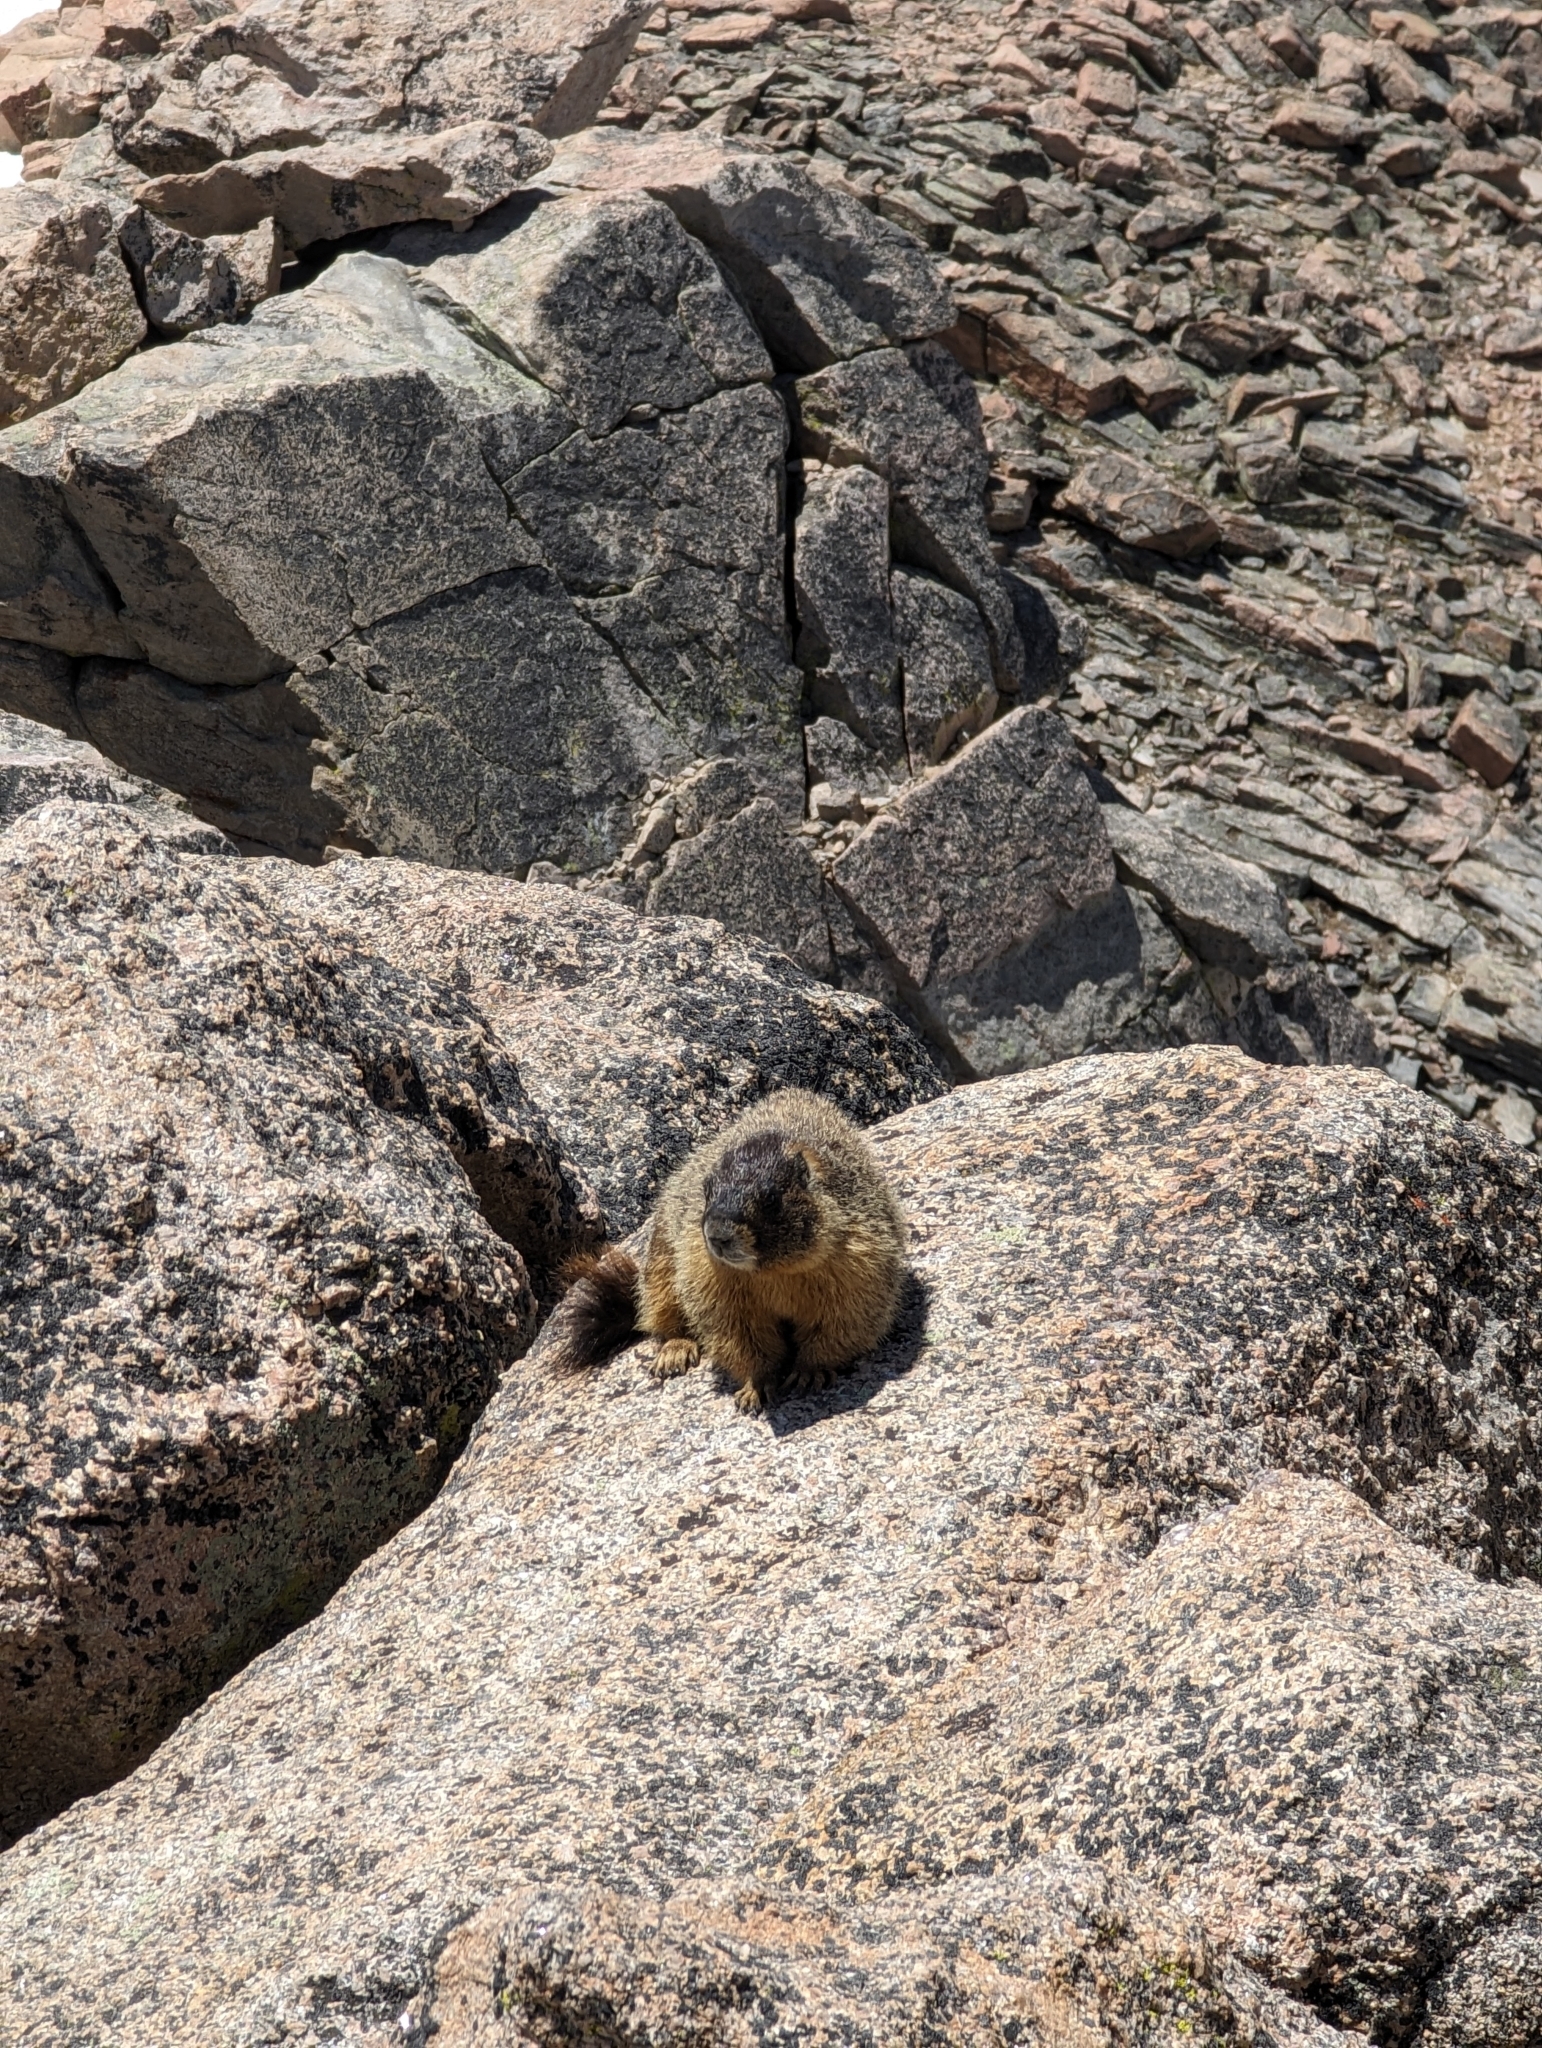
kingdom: Animalia
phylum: Chordata
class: Mammalia
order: Rodentia
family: Sciuridae
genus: Marmota
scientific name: Marmota flaviventris
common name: Yellow-bellied marmot
